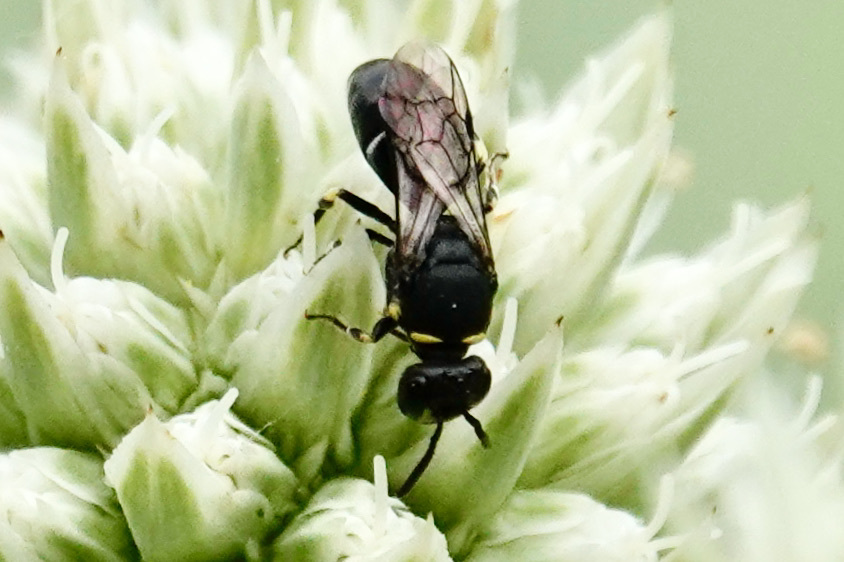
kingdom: Animalia
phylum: Arthropoda
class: Insecta
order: Hymenoptera
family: Colletidae
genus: Hylaeus
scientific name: Hylaeus modestus
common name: Yellow-faced bee
